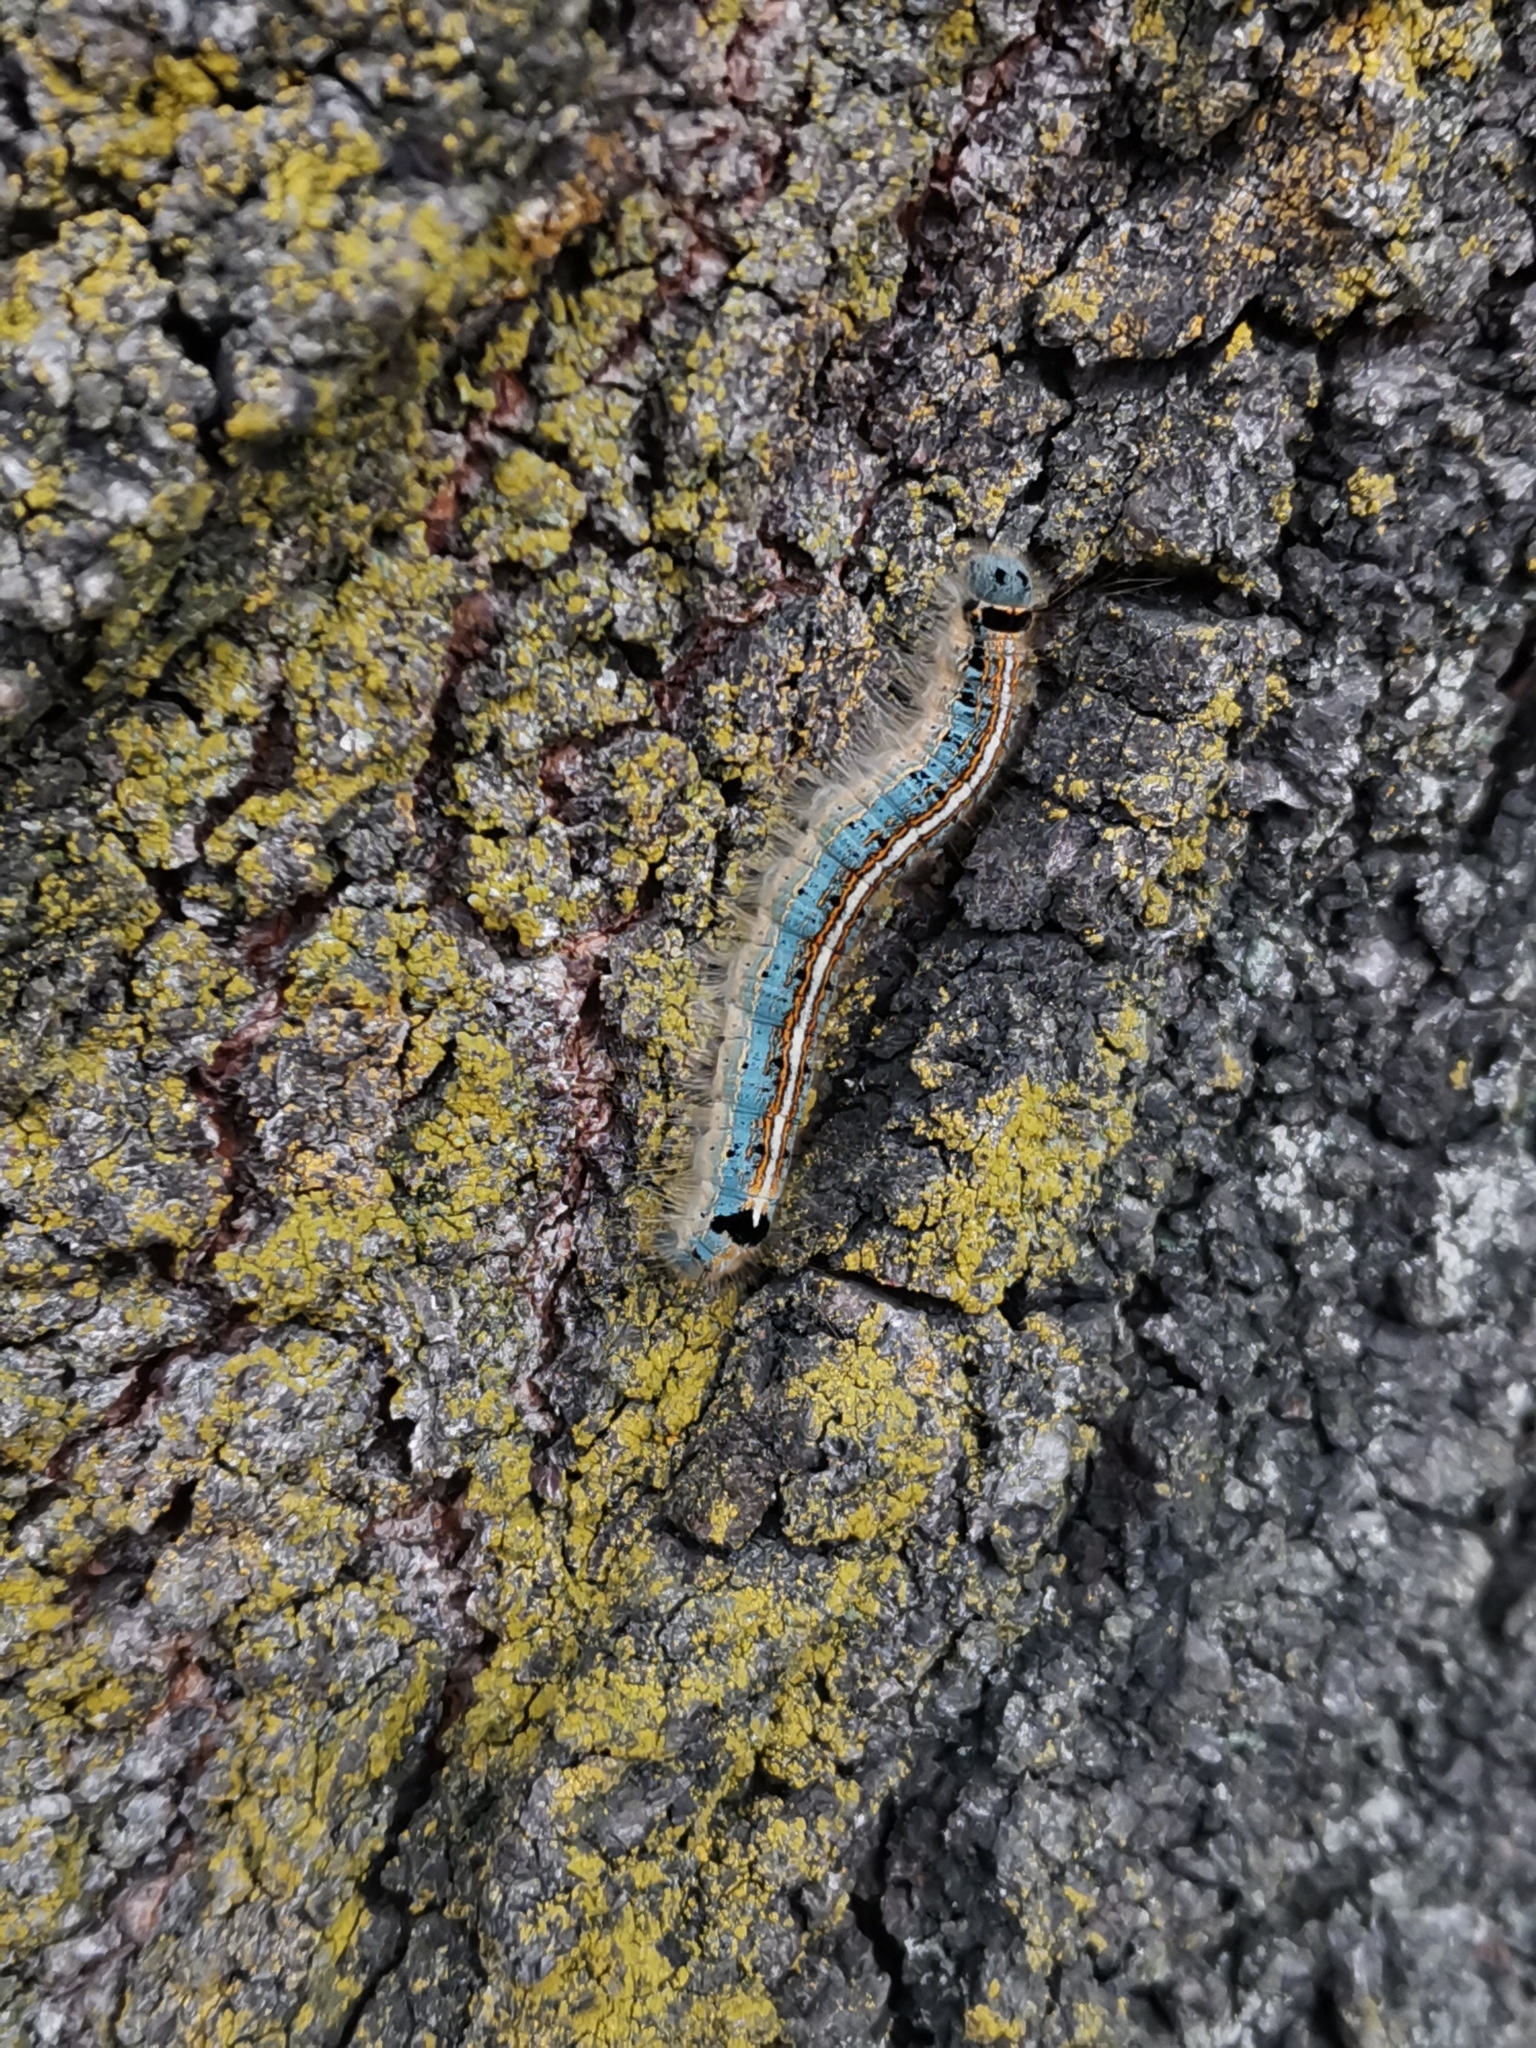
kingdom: Animalia
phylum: Arthropoda
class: Insecta
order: Lepidoptera
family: Lasiocampidae
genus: Malacosoma
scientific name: Malacosoma neustria
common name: The lackey
